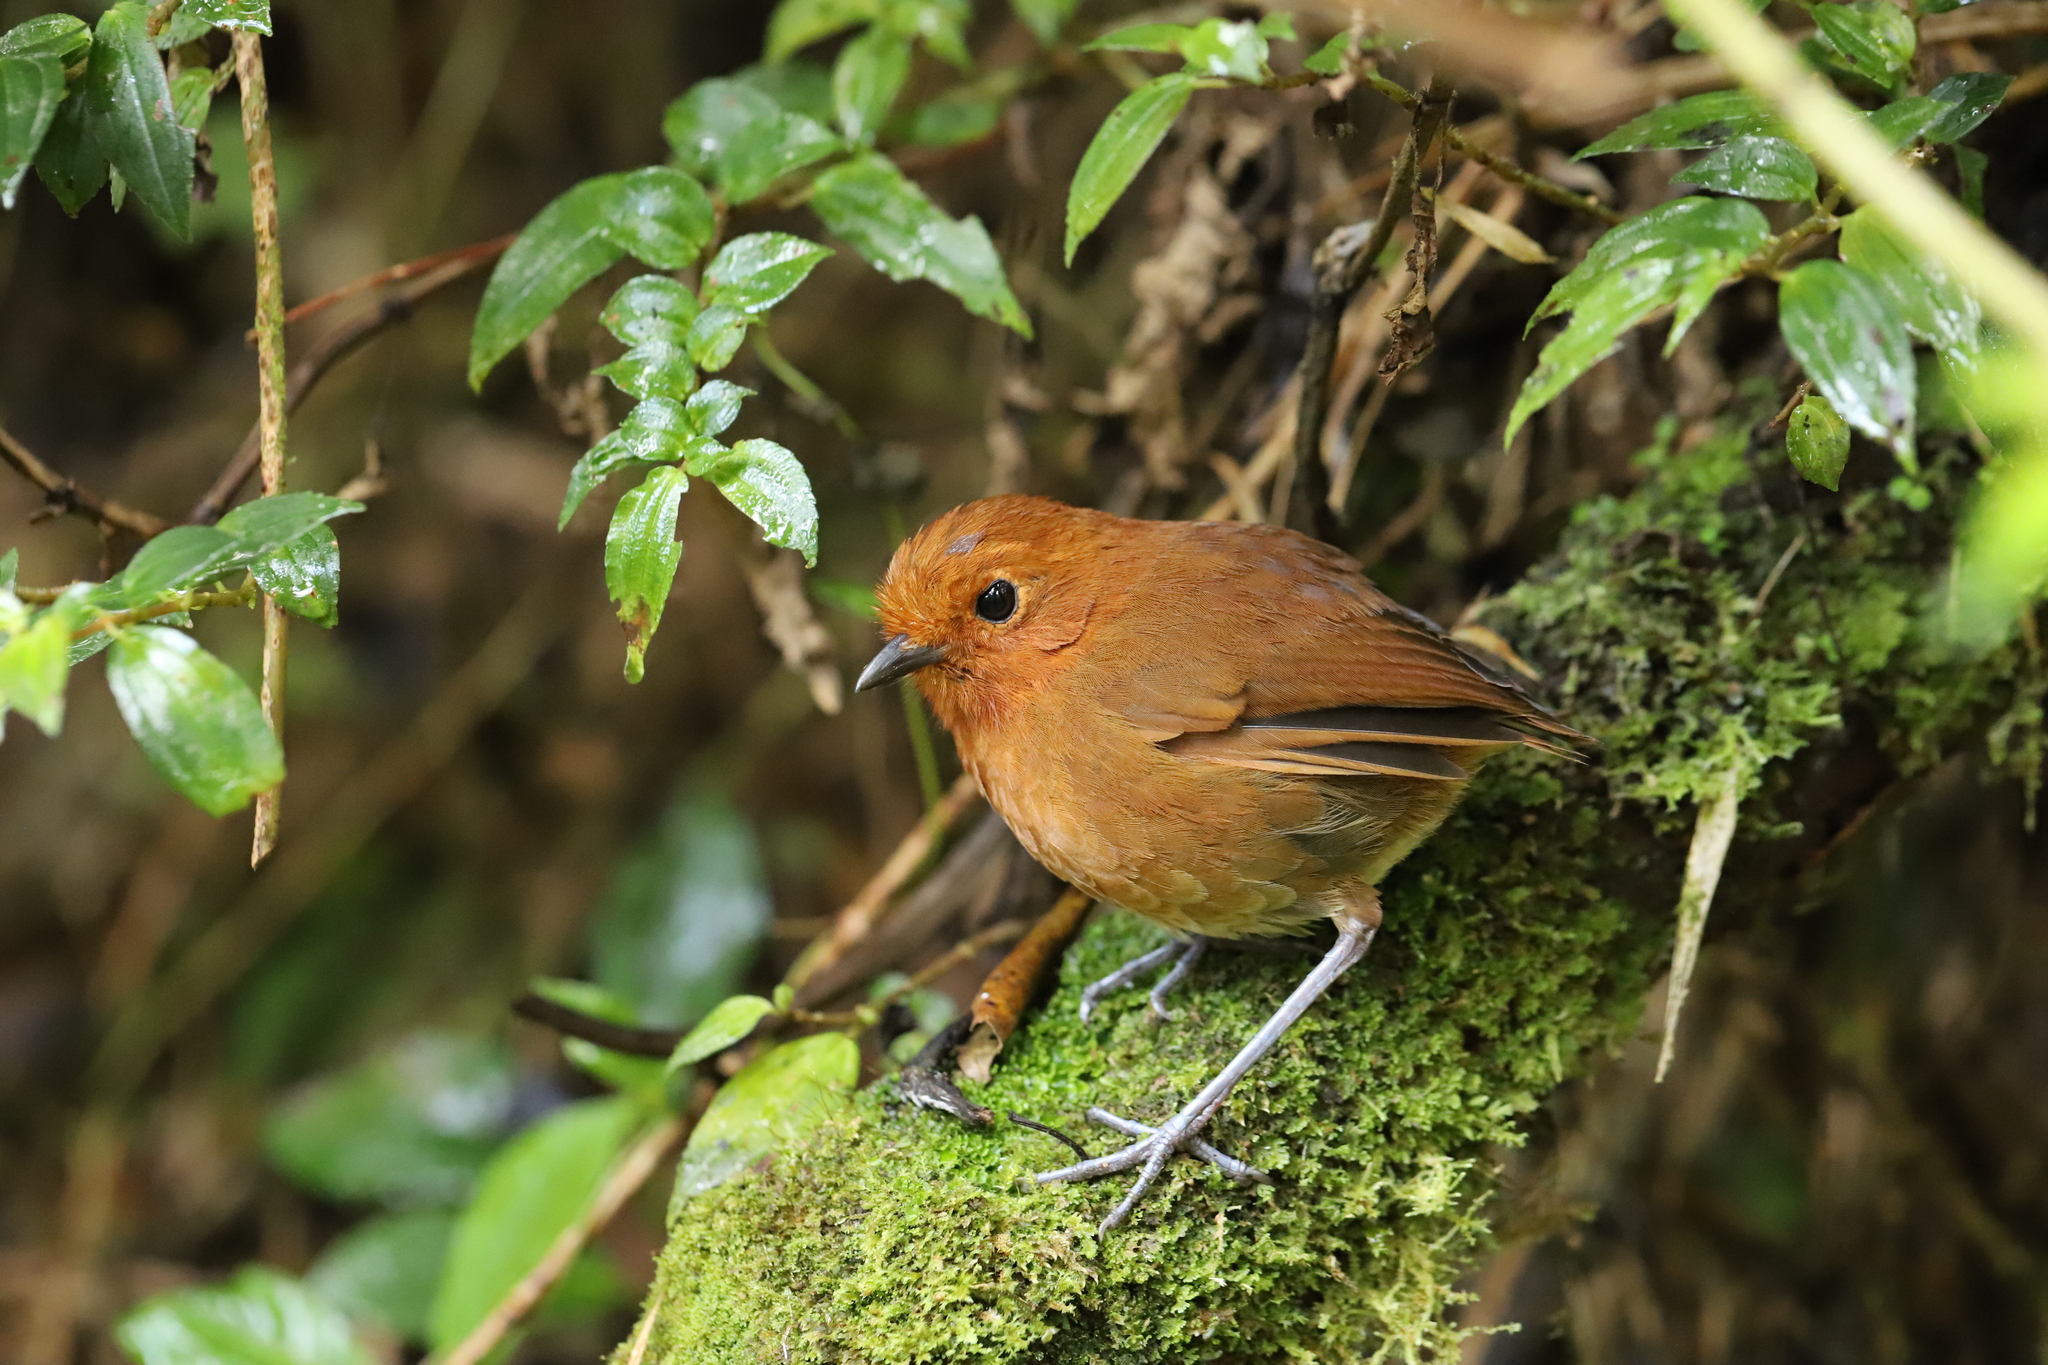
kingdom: Animalia
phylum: Chordata
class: Aves
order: Passeriformes
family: Grallariidae
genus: Grallaria
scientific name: Grallaria alvarezi
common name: Chami antpitta
